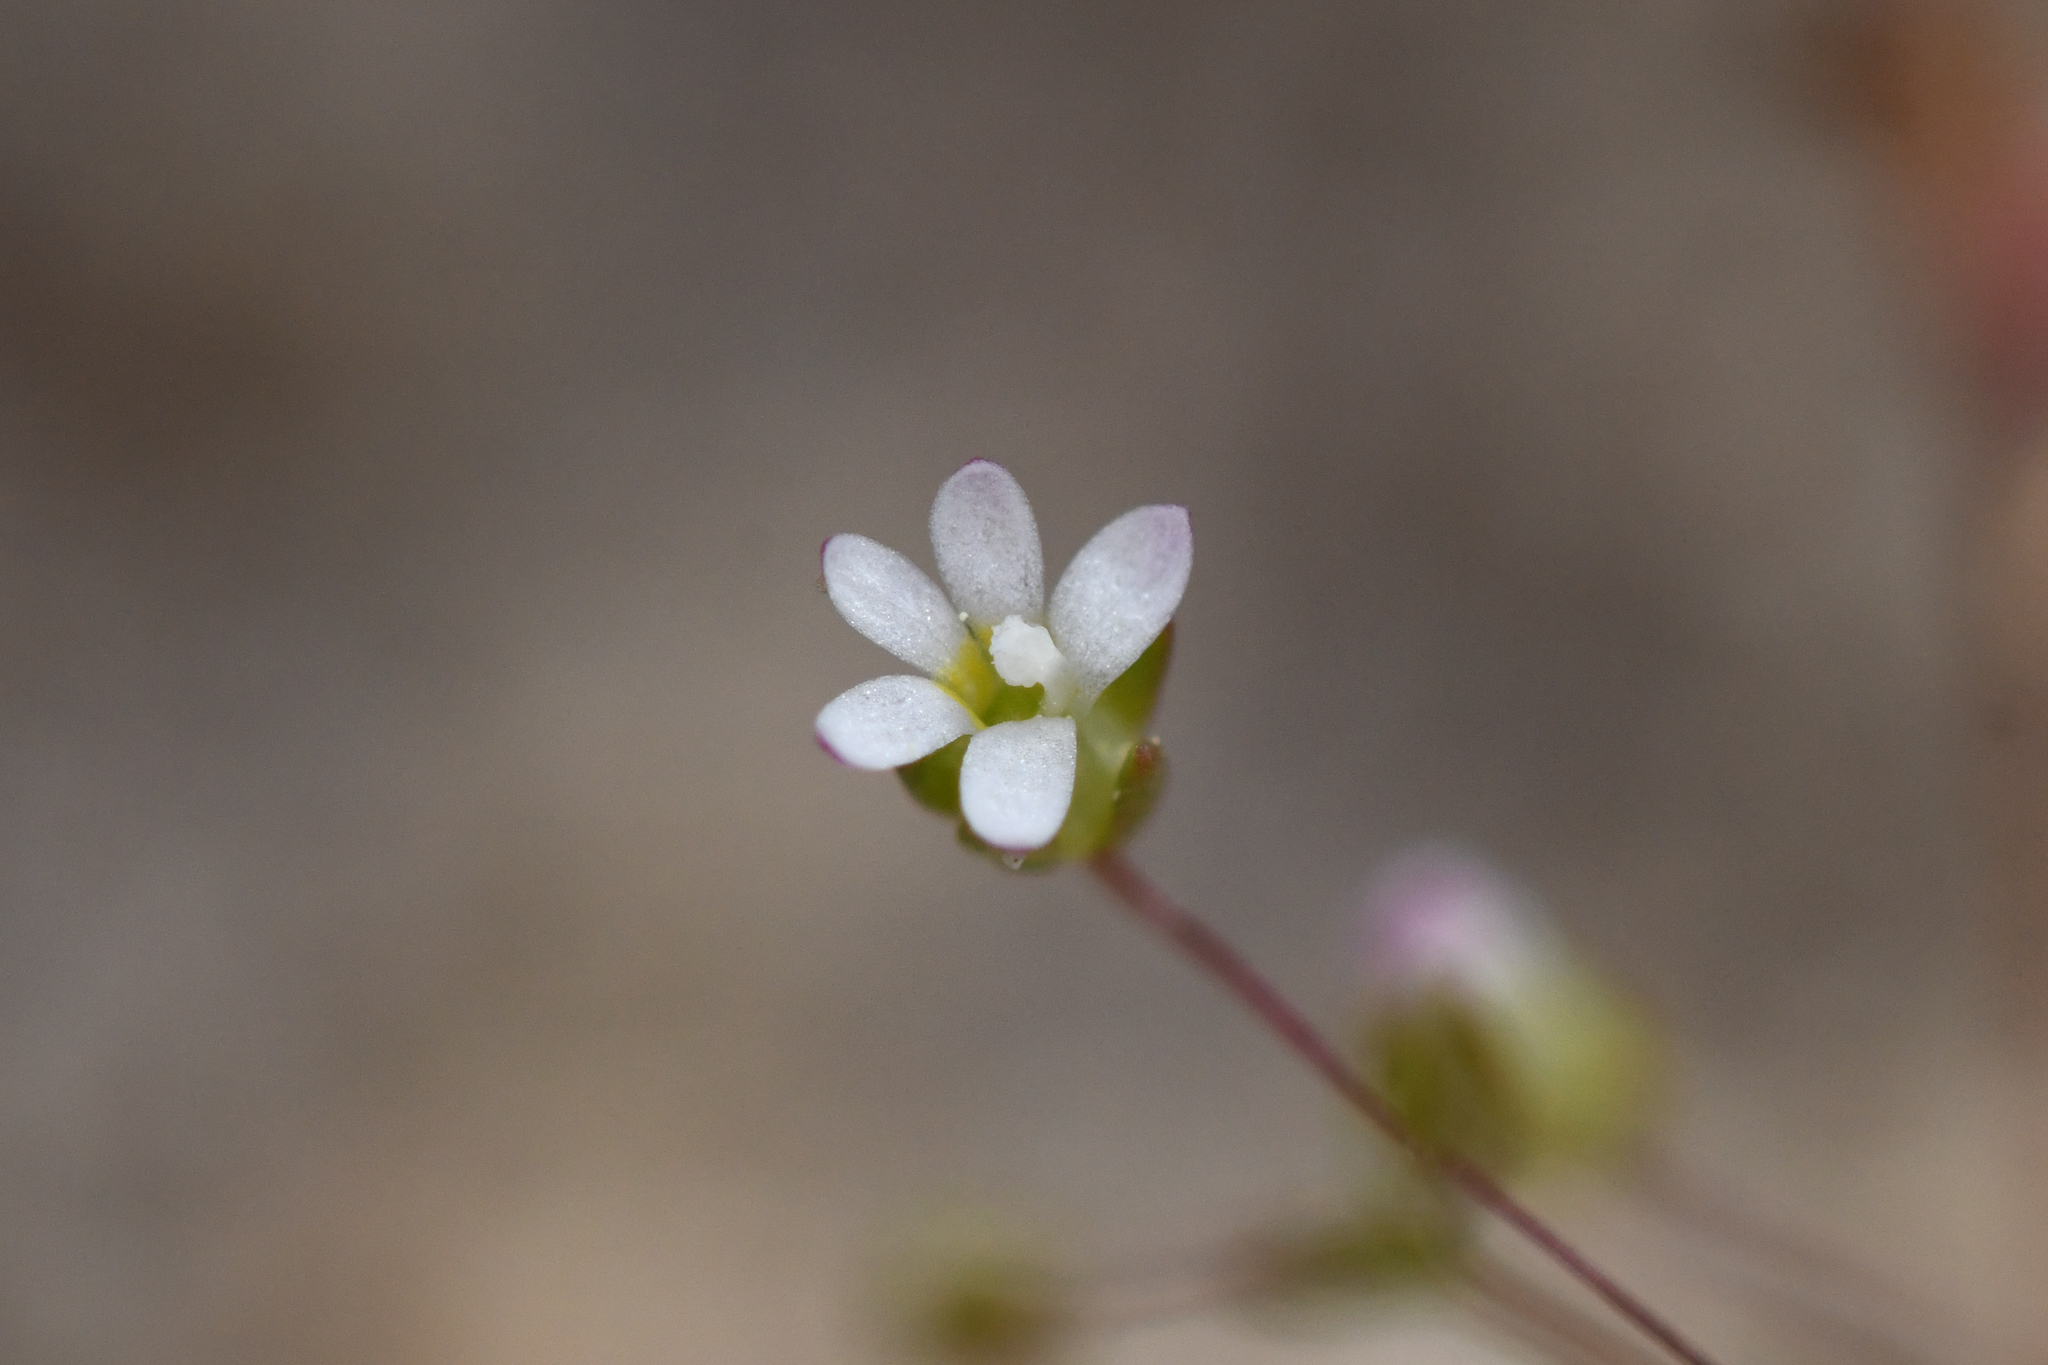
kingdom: Plantae
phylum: Tracheophyta
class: Magnoliopsida
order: Asterales
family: Campanulaceae
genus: Nemacladus
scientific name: Nemacladus sigmoideus
